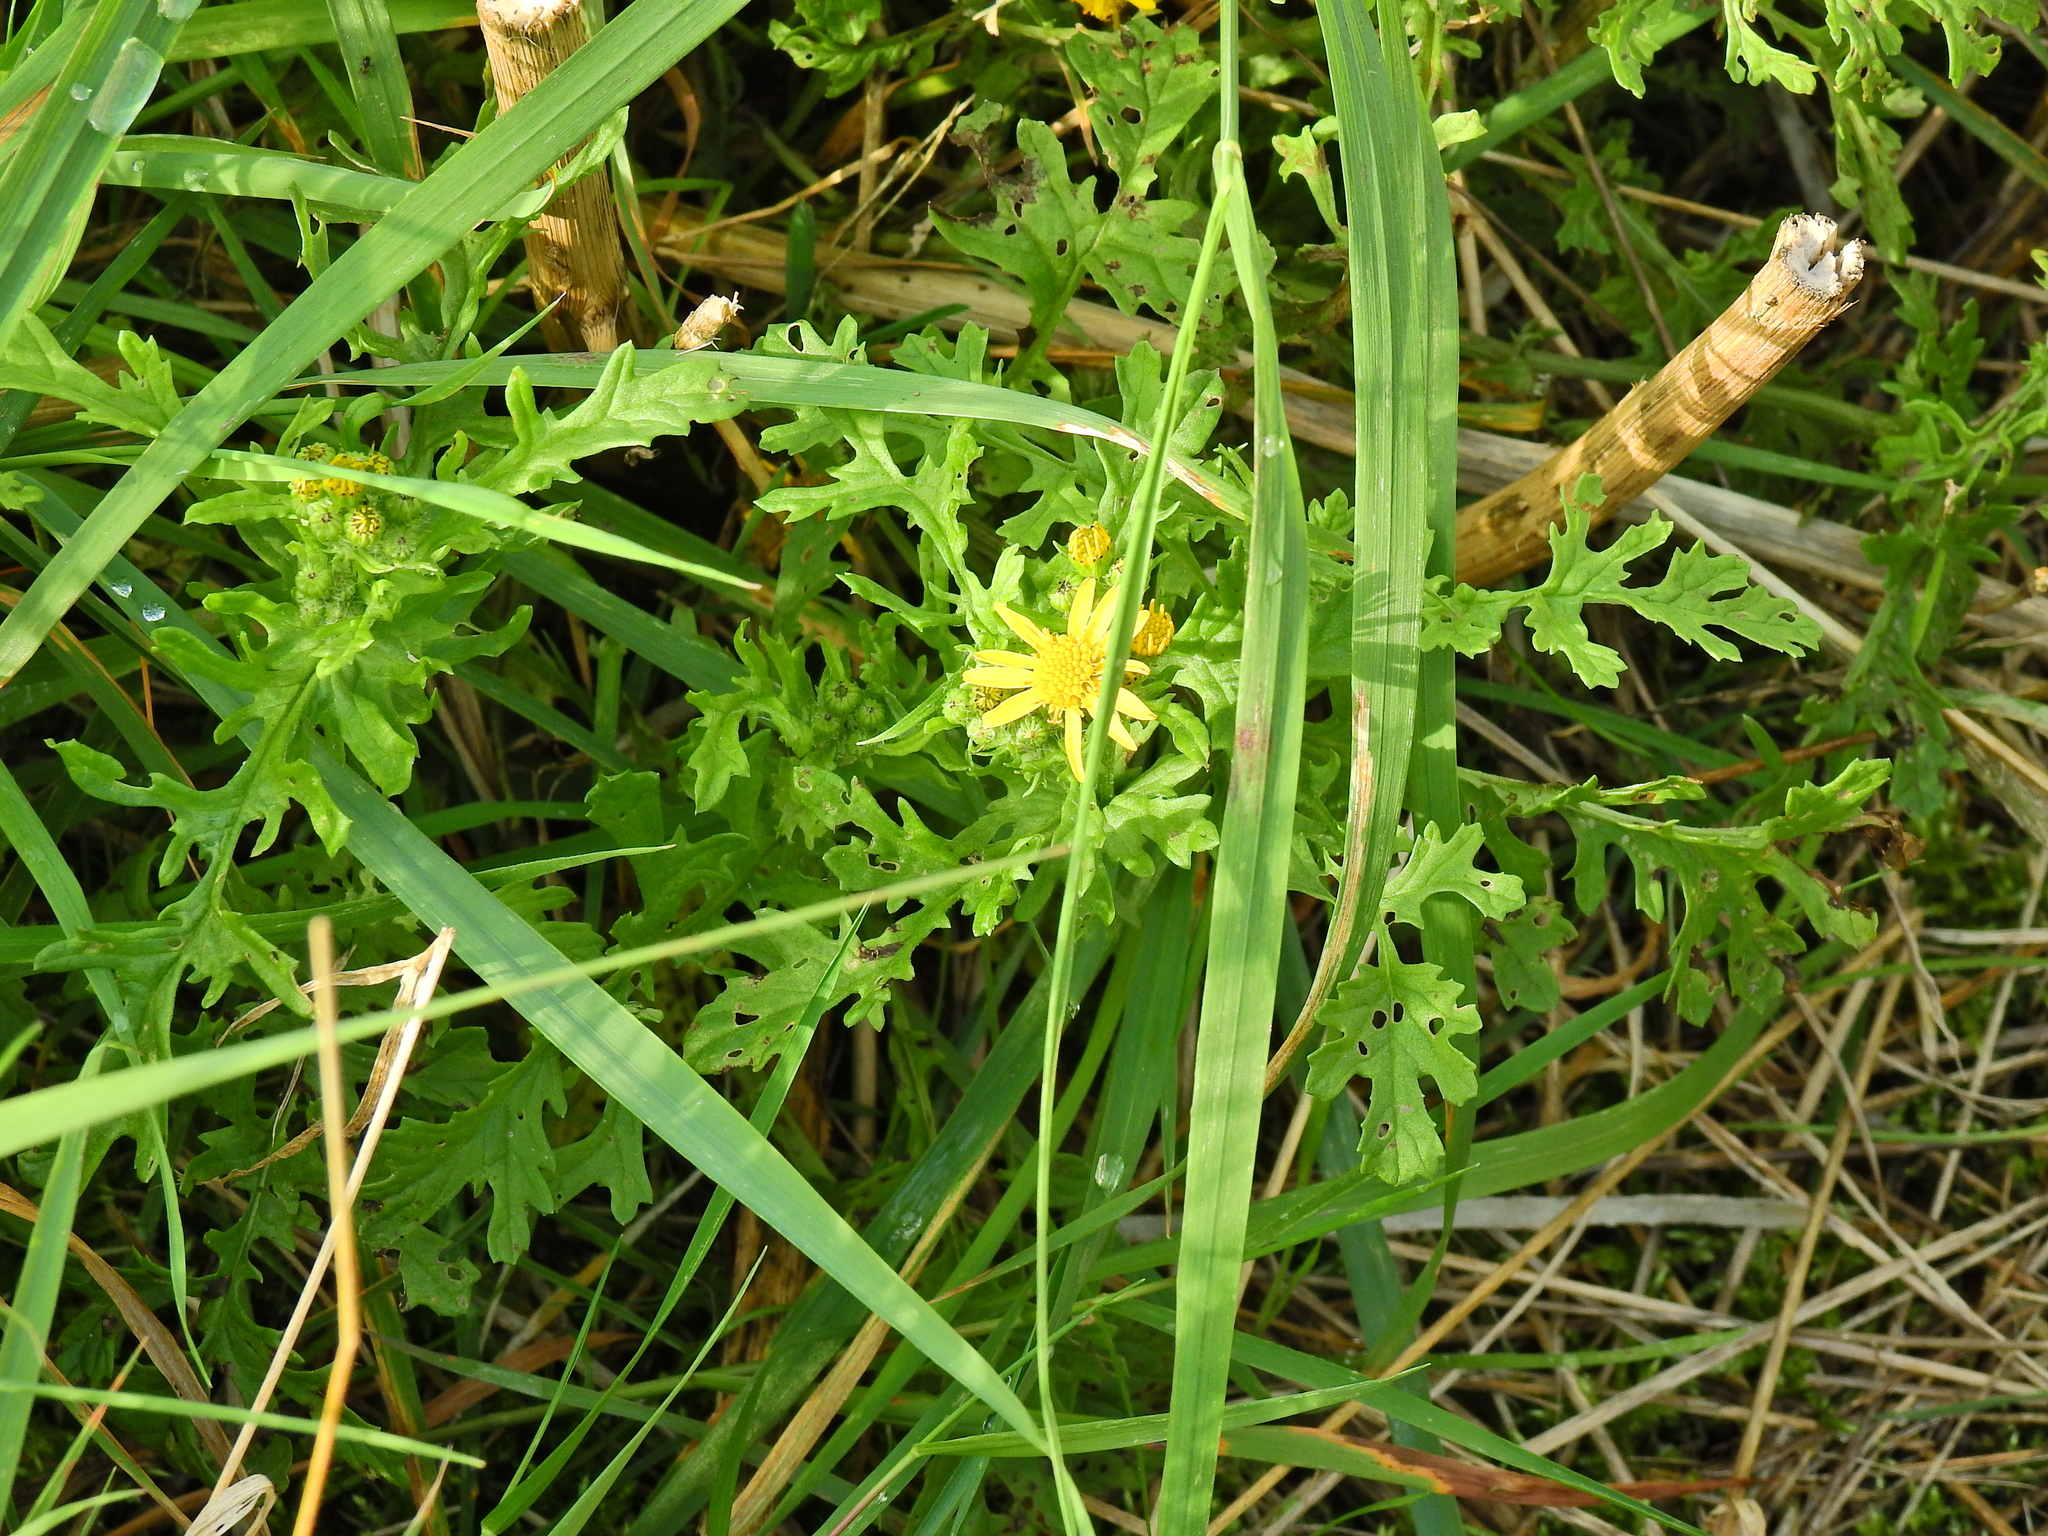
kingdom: Plantae
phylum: Tracheophyta
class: Magnoliopsida
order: Asterales
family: Asteraceae
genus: Jacobaea
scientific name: Jacobaea vulgaris
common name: Stinking willie
